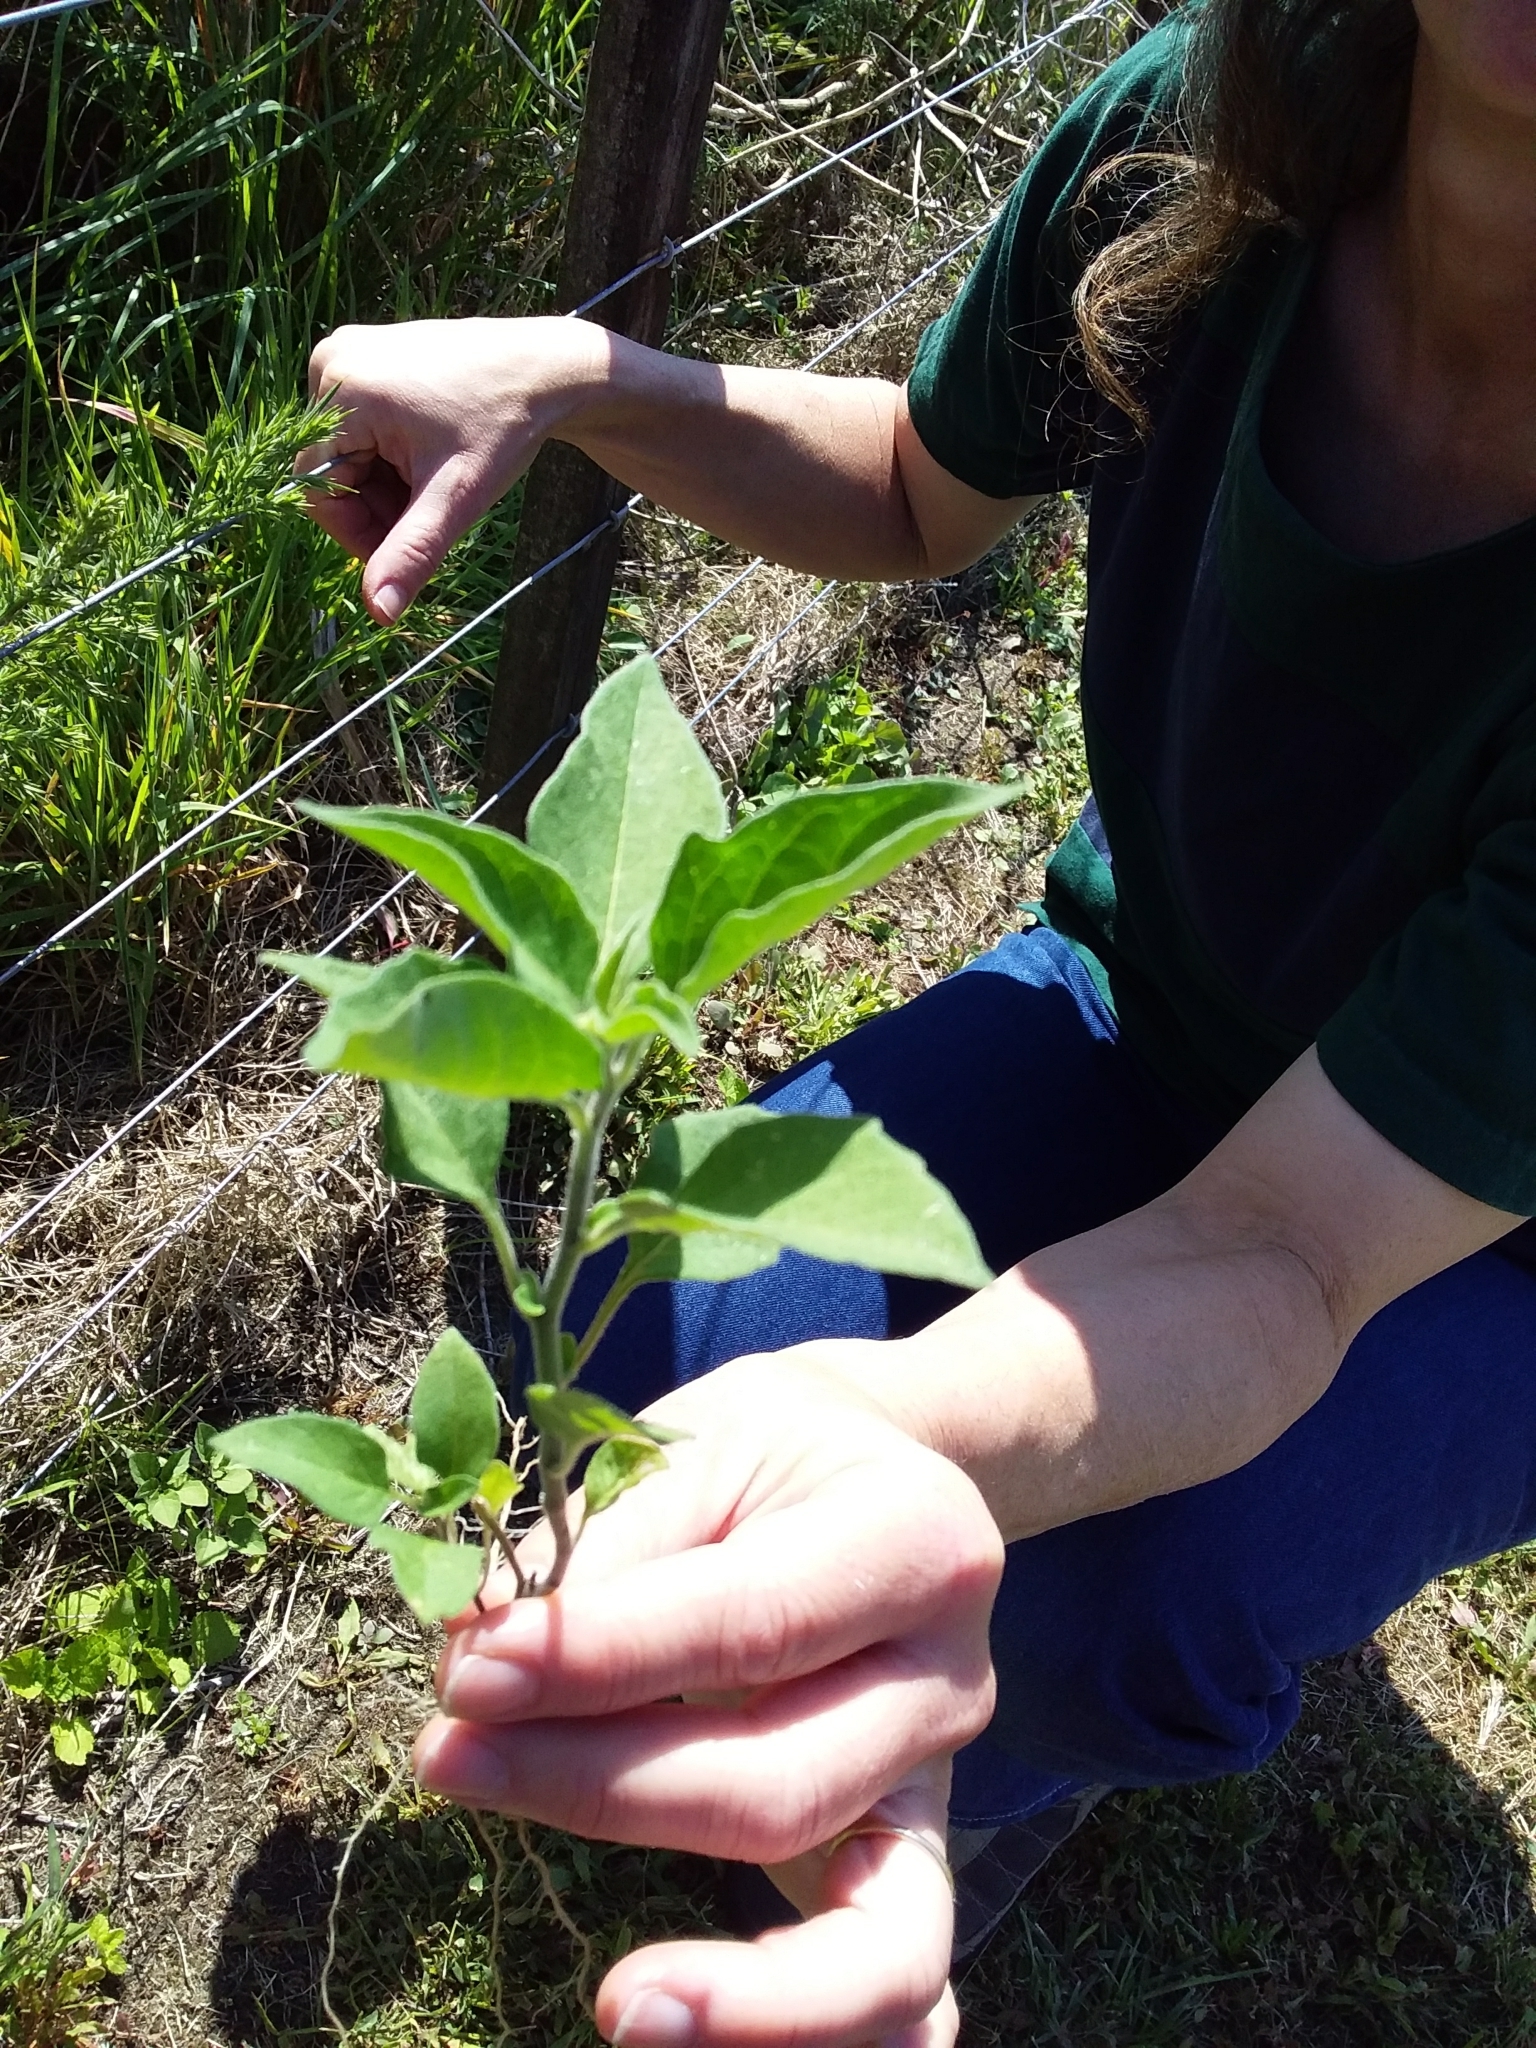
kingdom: Plantae
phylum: Tracheophyta
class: Magnoliopsida
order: Solanales
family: Solanaceae
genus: Solanum
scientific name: Solanum dulcamara
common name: Climbing nightshade
